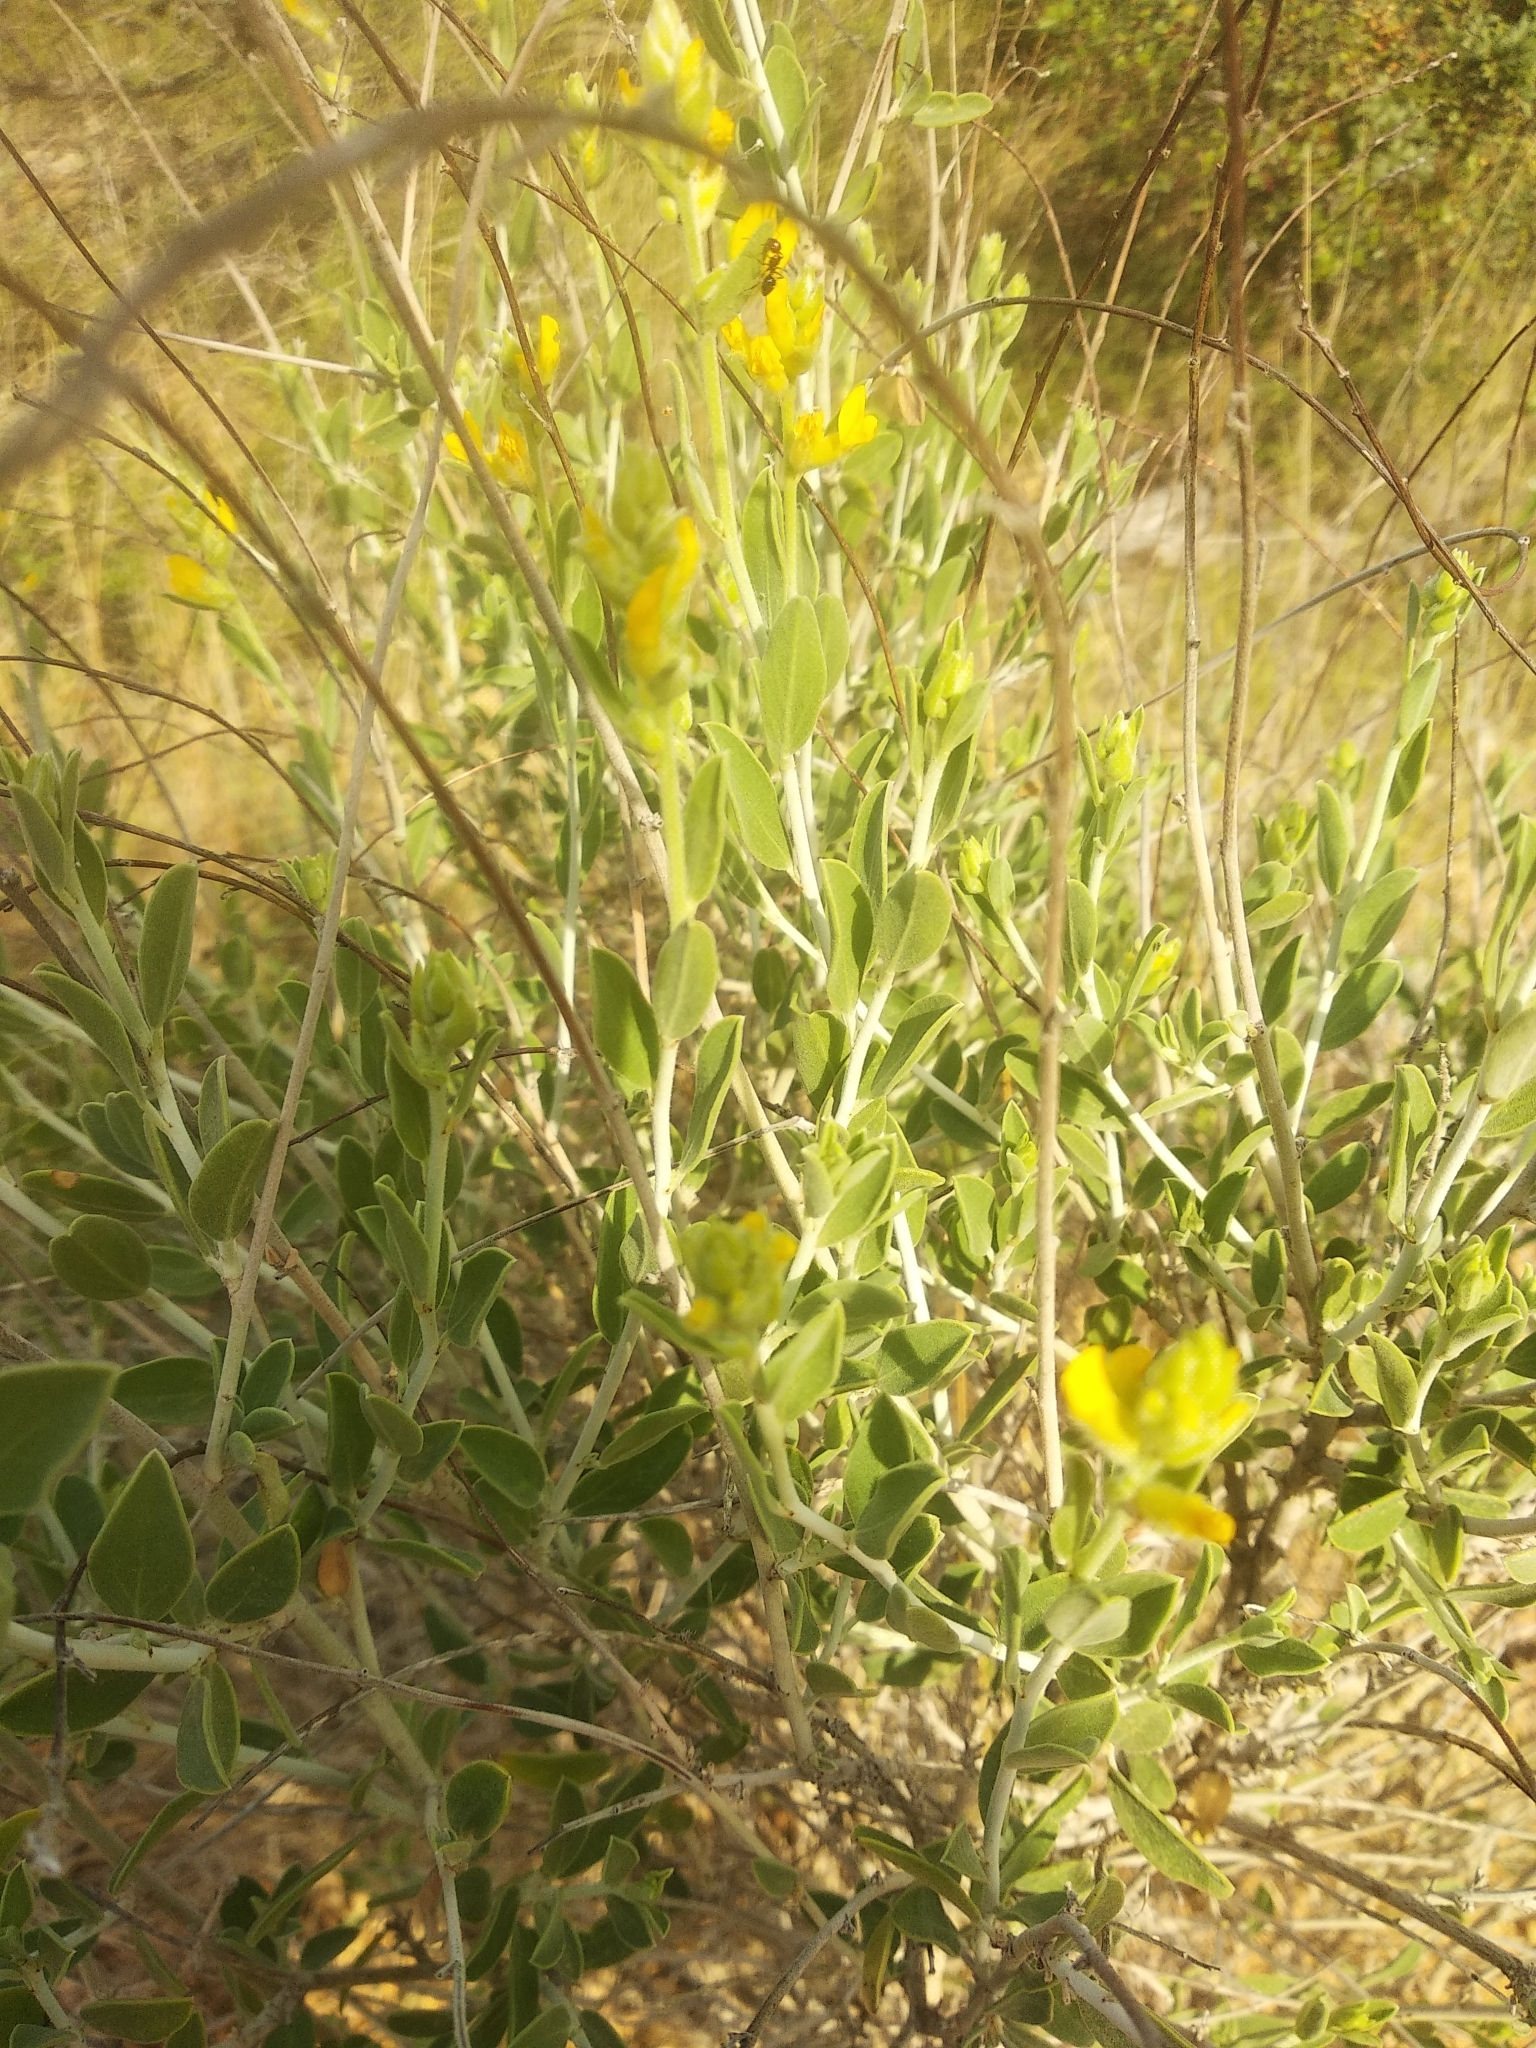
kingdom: Plantae
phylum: Tracheophyta
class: Magnoliopsida
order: Fabales
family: Fabaceae
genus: Anthyllis
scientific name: Anthyllis cytisoides
